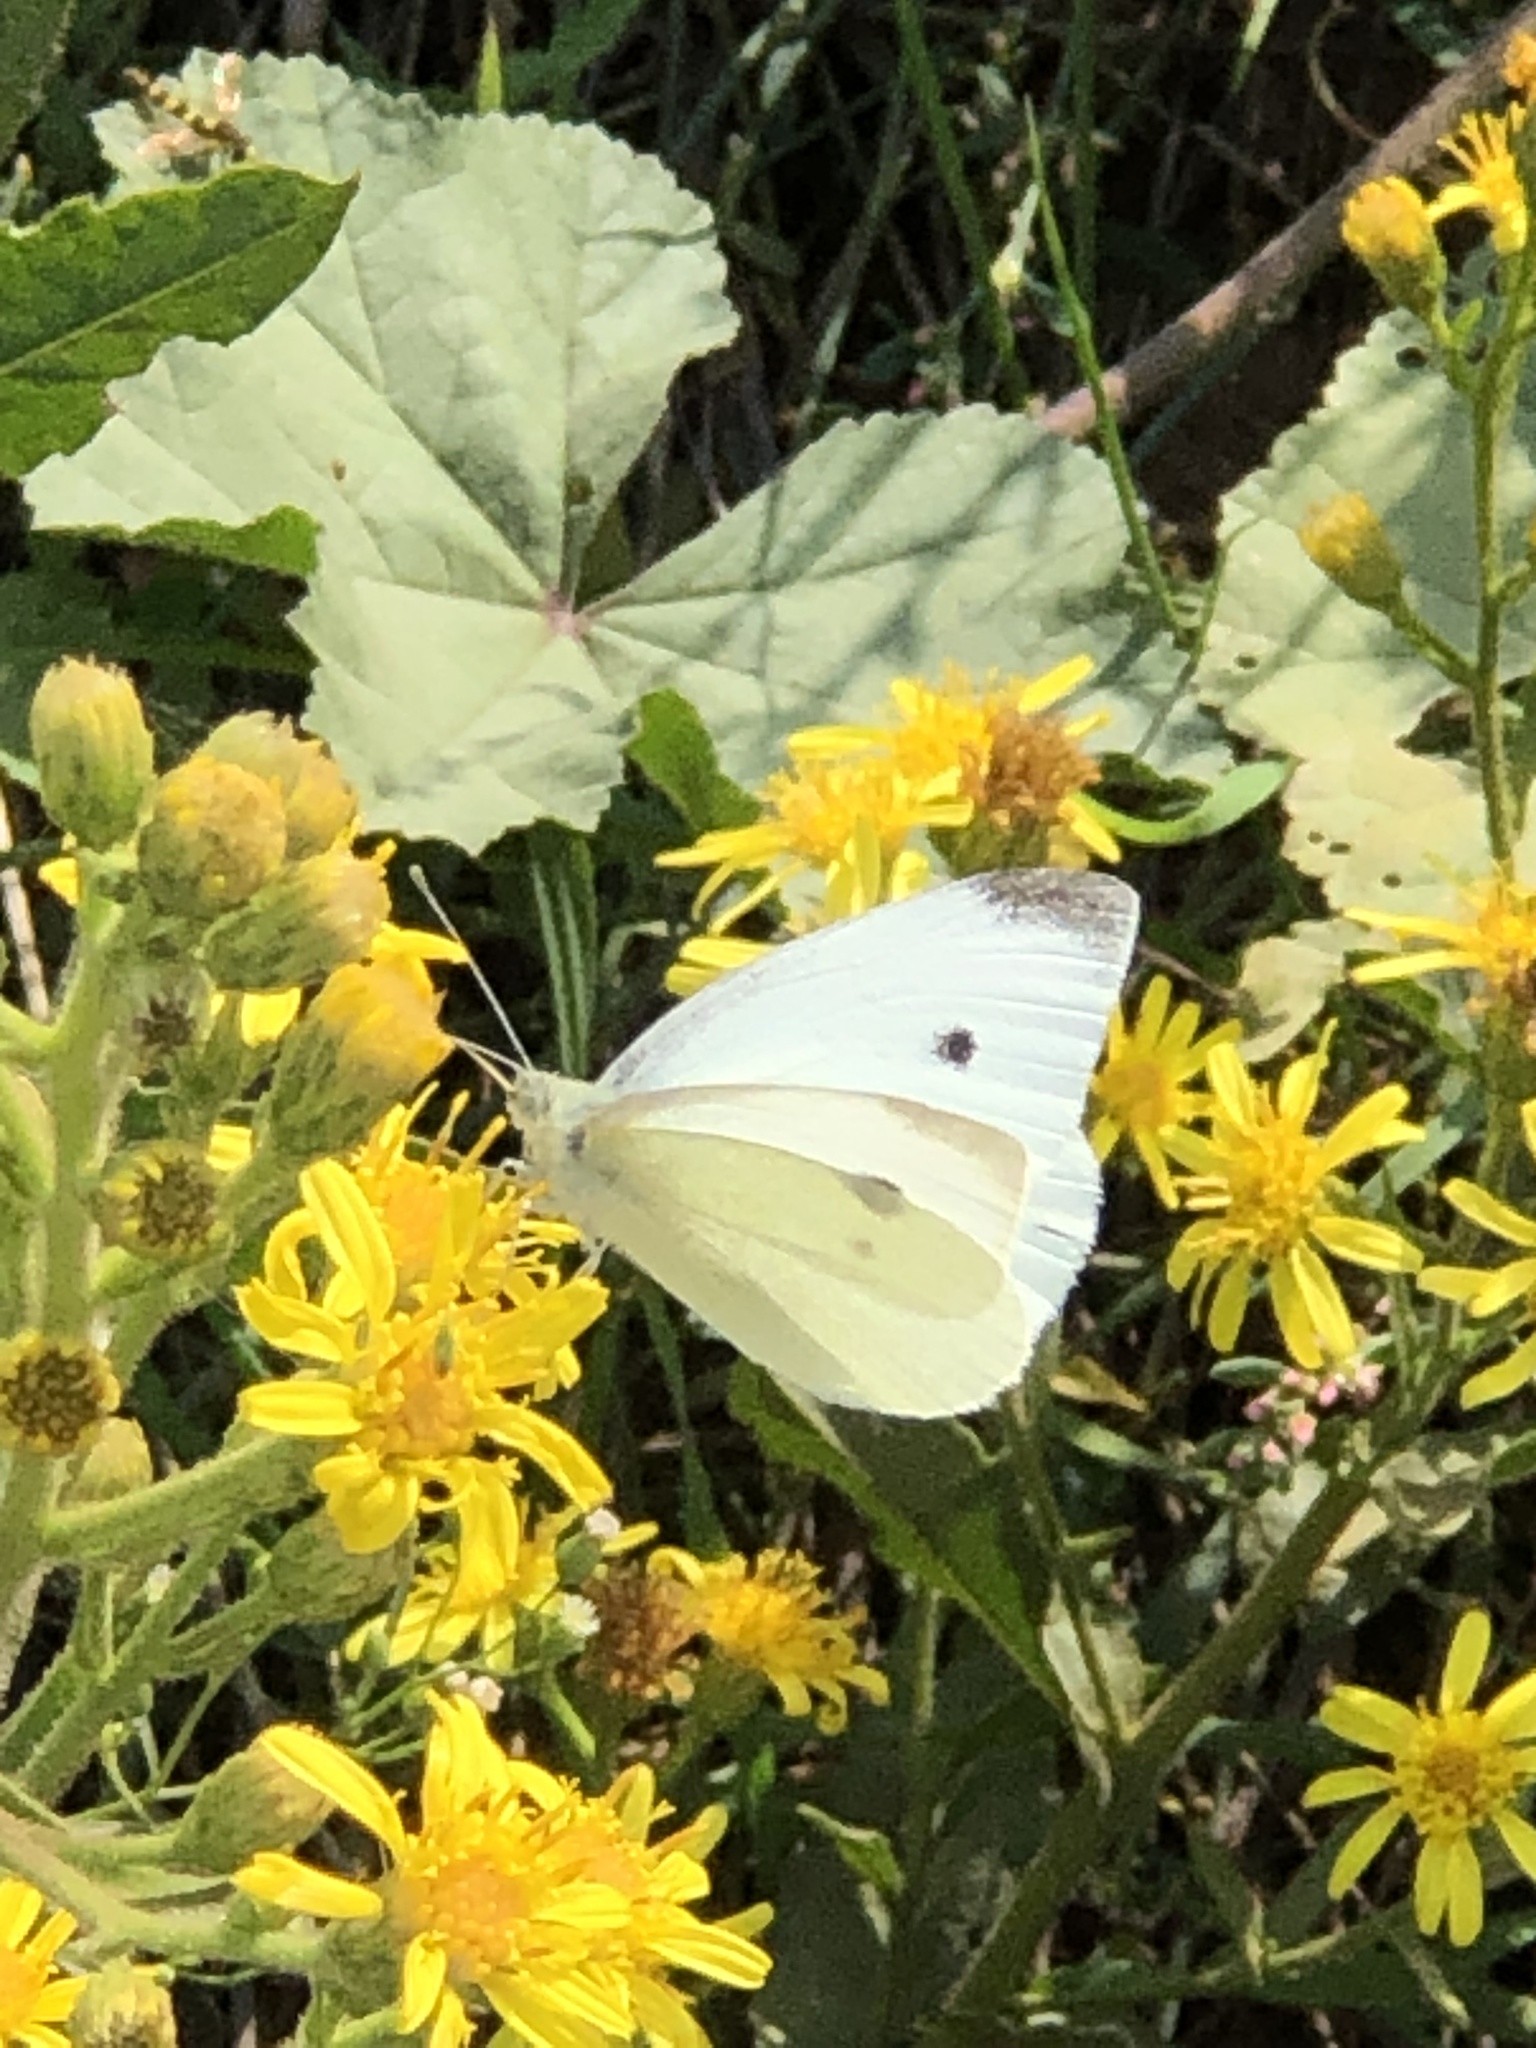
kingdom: Animalia
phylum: Arthropoda
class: Insecta
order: Lepidoptera
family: Pieridae
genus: Pieris
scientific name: Pieris rapae
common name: Small white
